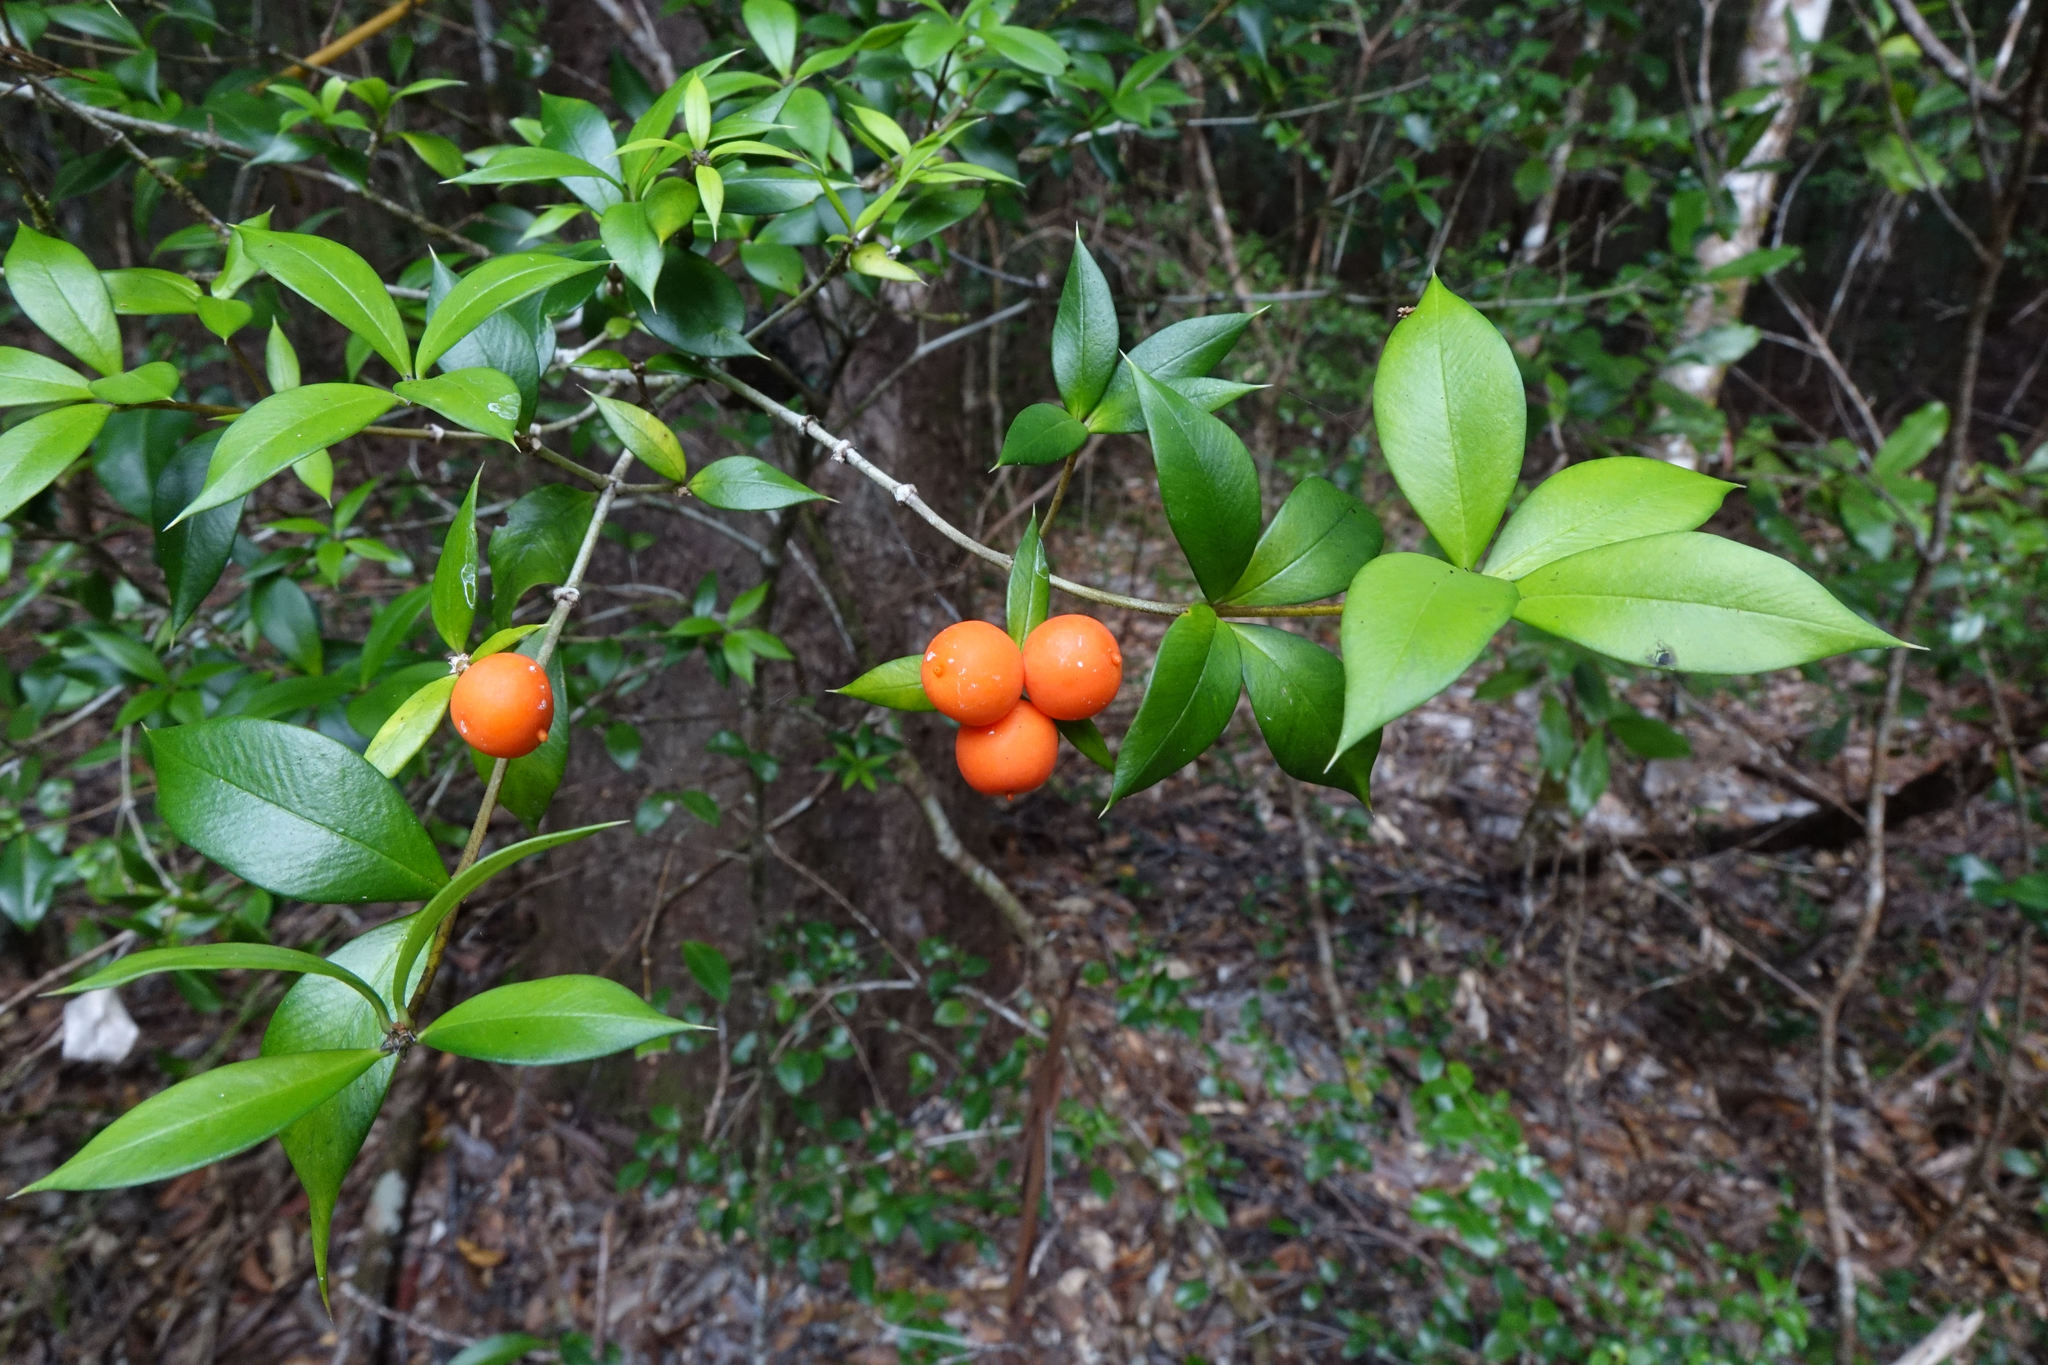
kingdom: Plantae
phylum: Tracheophyta
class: Magnoliopsida
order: Gentianales
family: Apocynaceae
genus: Alyxia
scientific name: Alyxia ruscifolia
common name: Chainfruit
